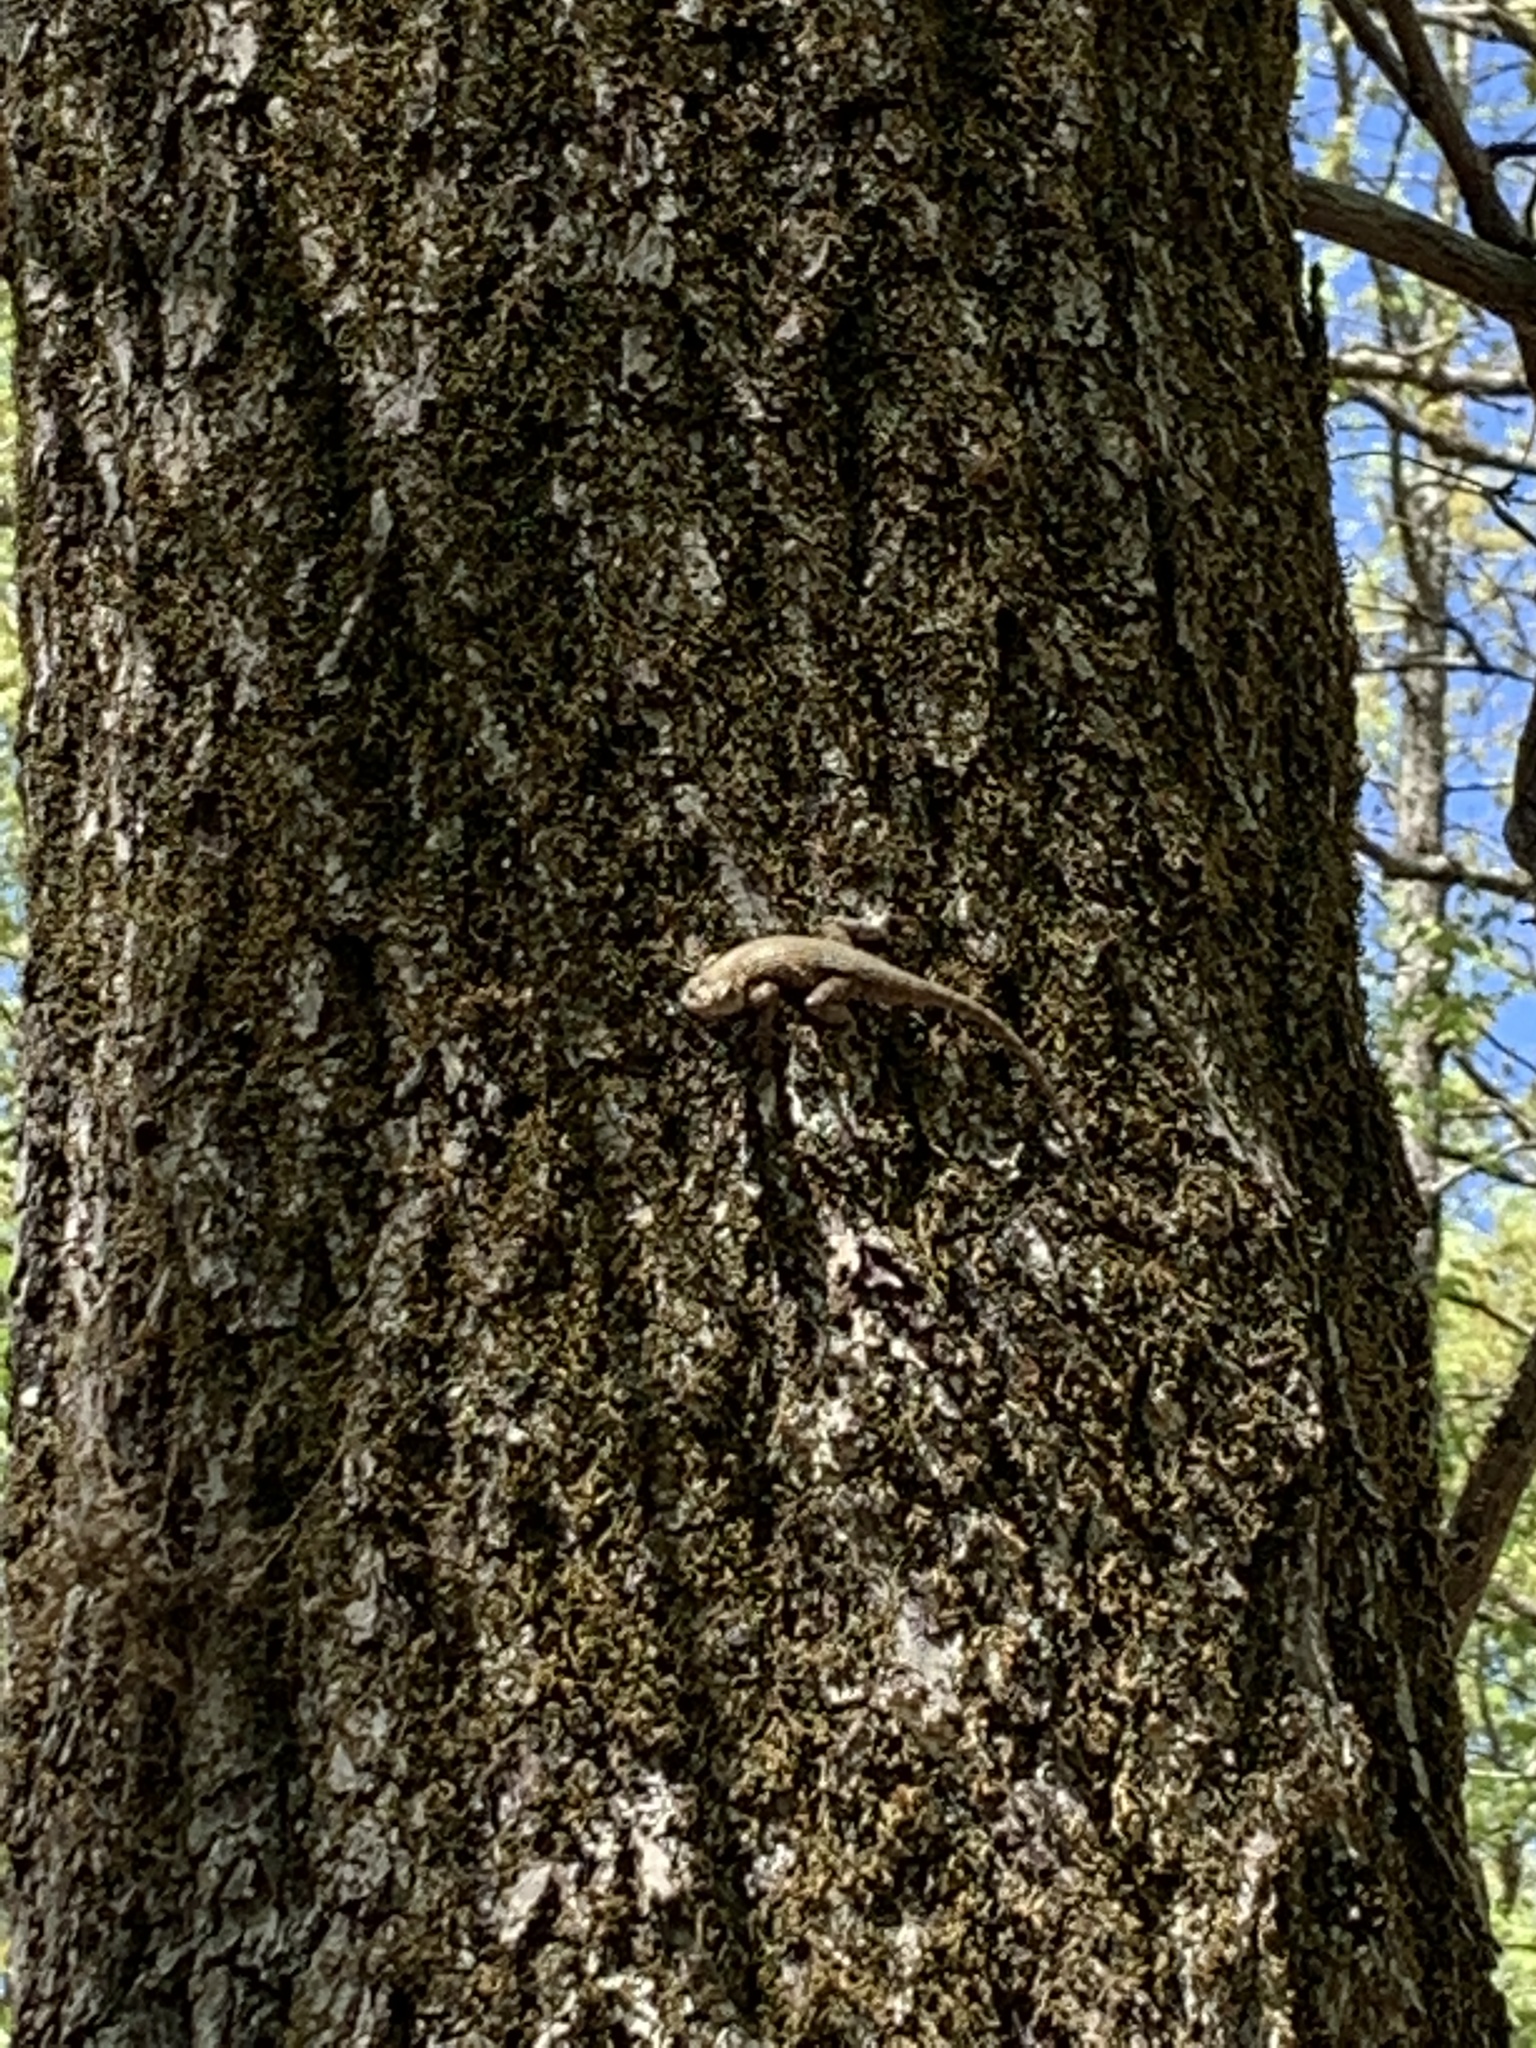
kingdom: Animalia
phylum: Chordata
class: Squamata
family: Phrynosomatidae
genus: Sceloporus
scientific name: Sceloporus undulatus
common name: Eastern fence lizard
